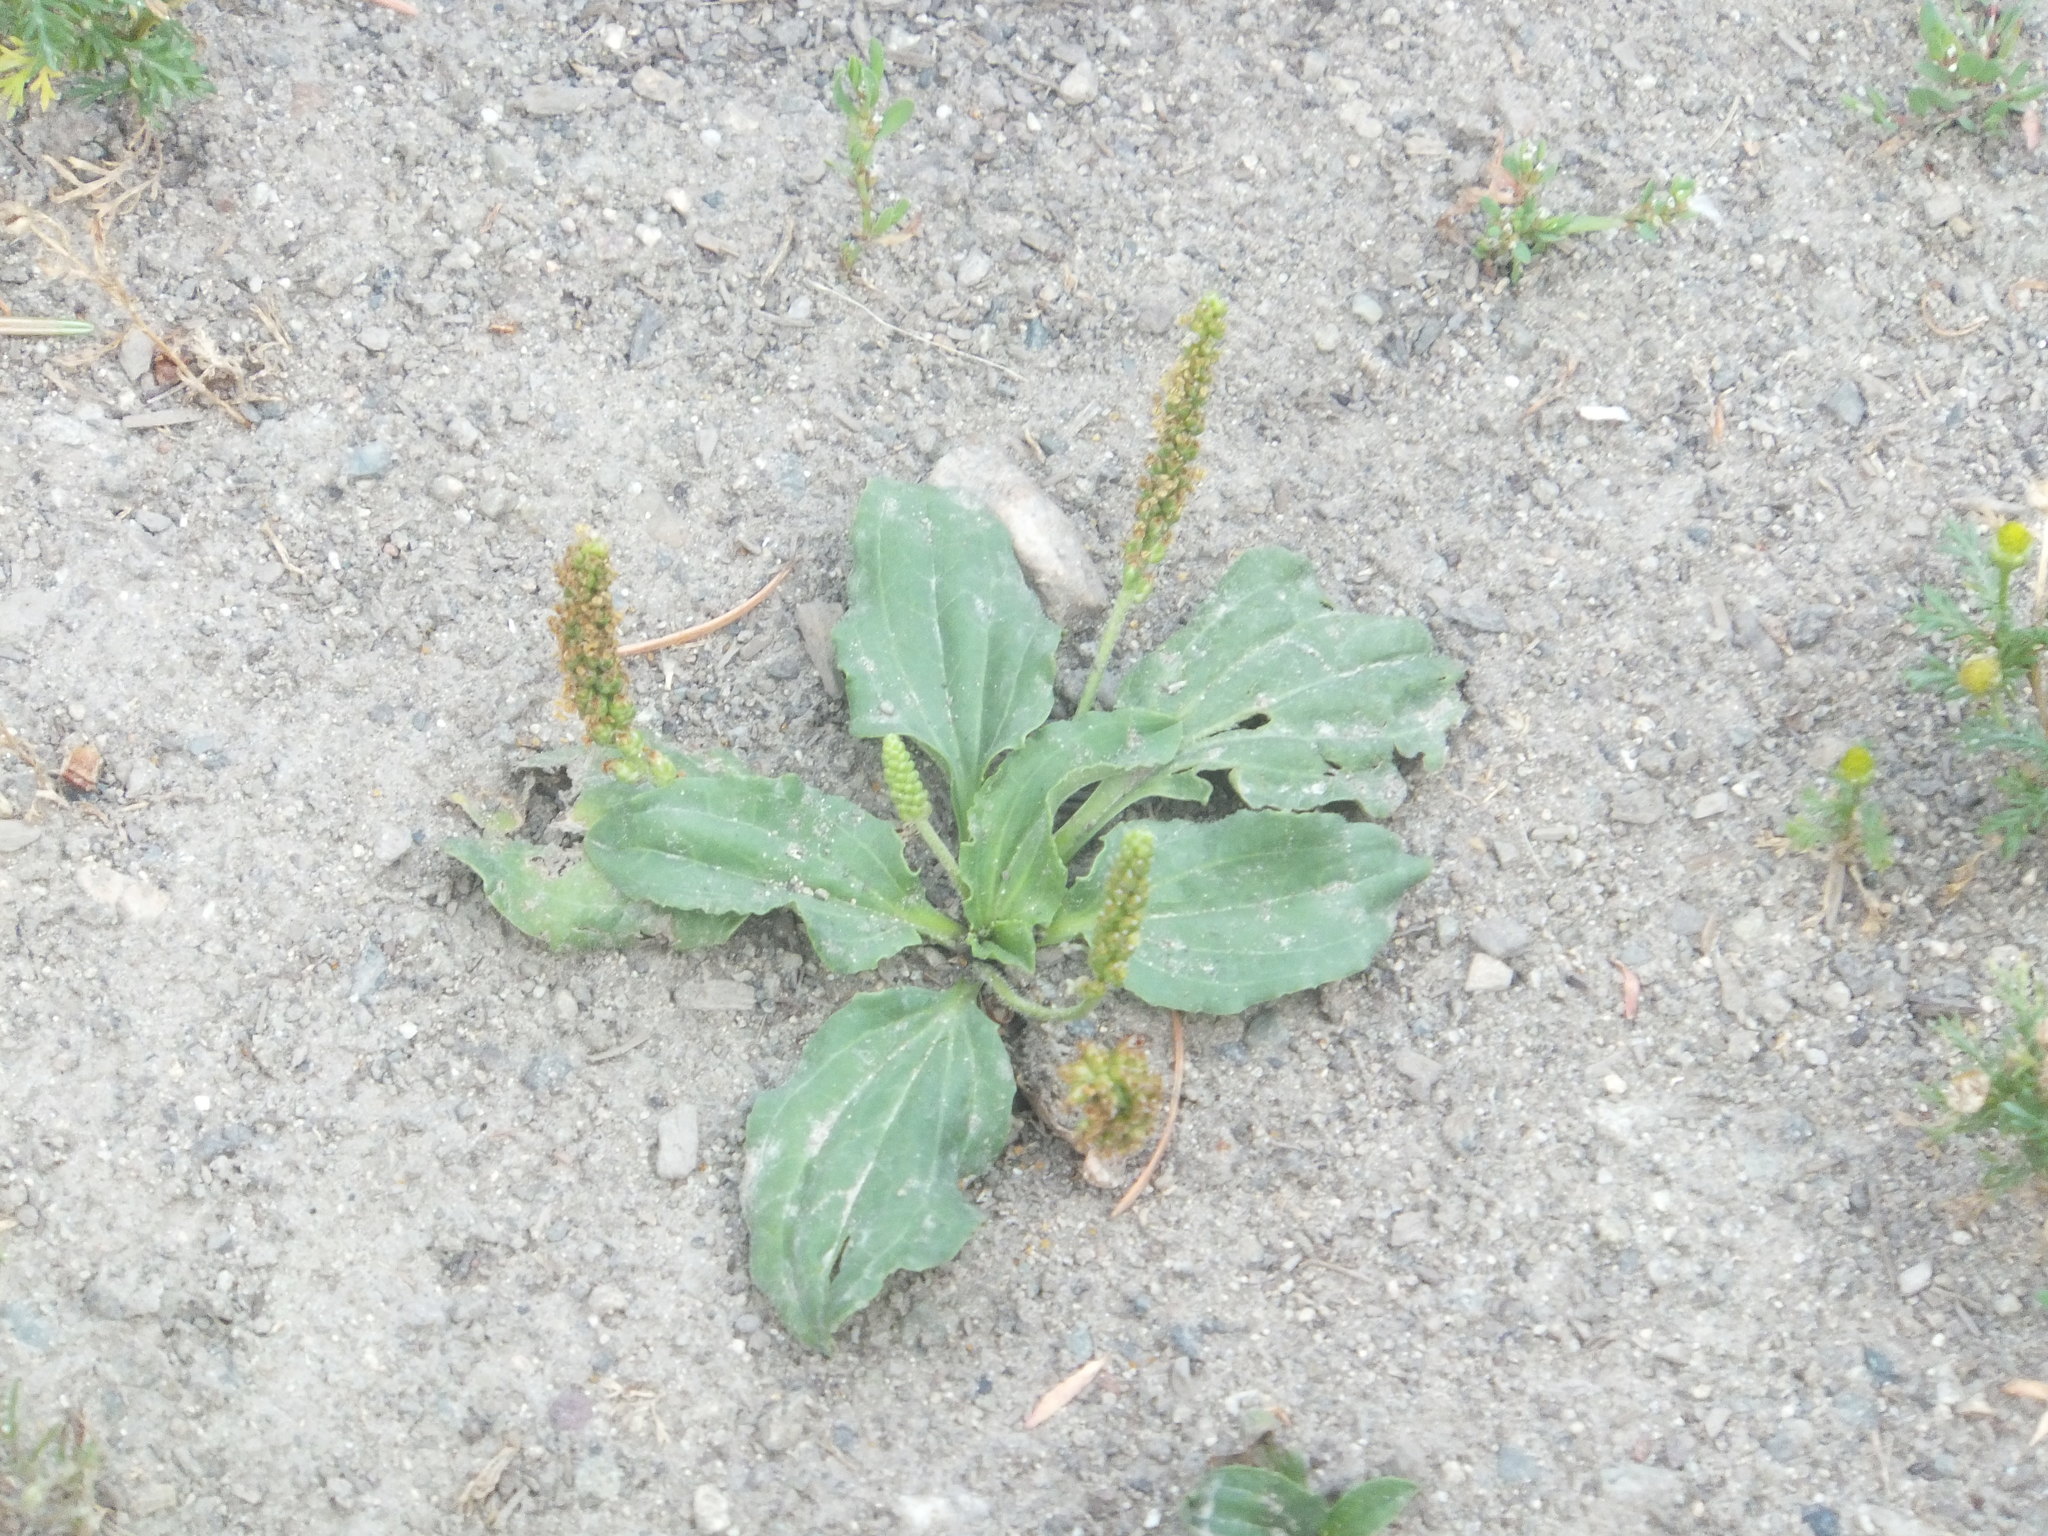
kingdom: Plantae
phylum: Tracheophyta
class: Magnoliopsida
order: Lamiales
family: Plantaginaceae
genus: Plantago
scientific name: Plantago major
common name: Common plantain
